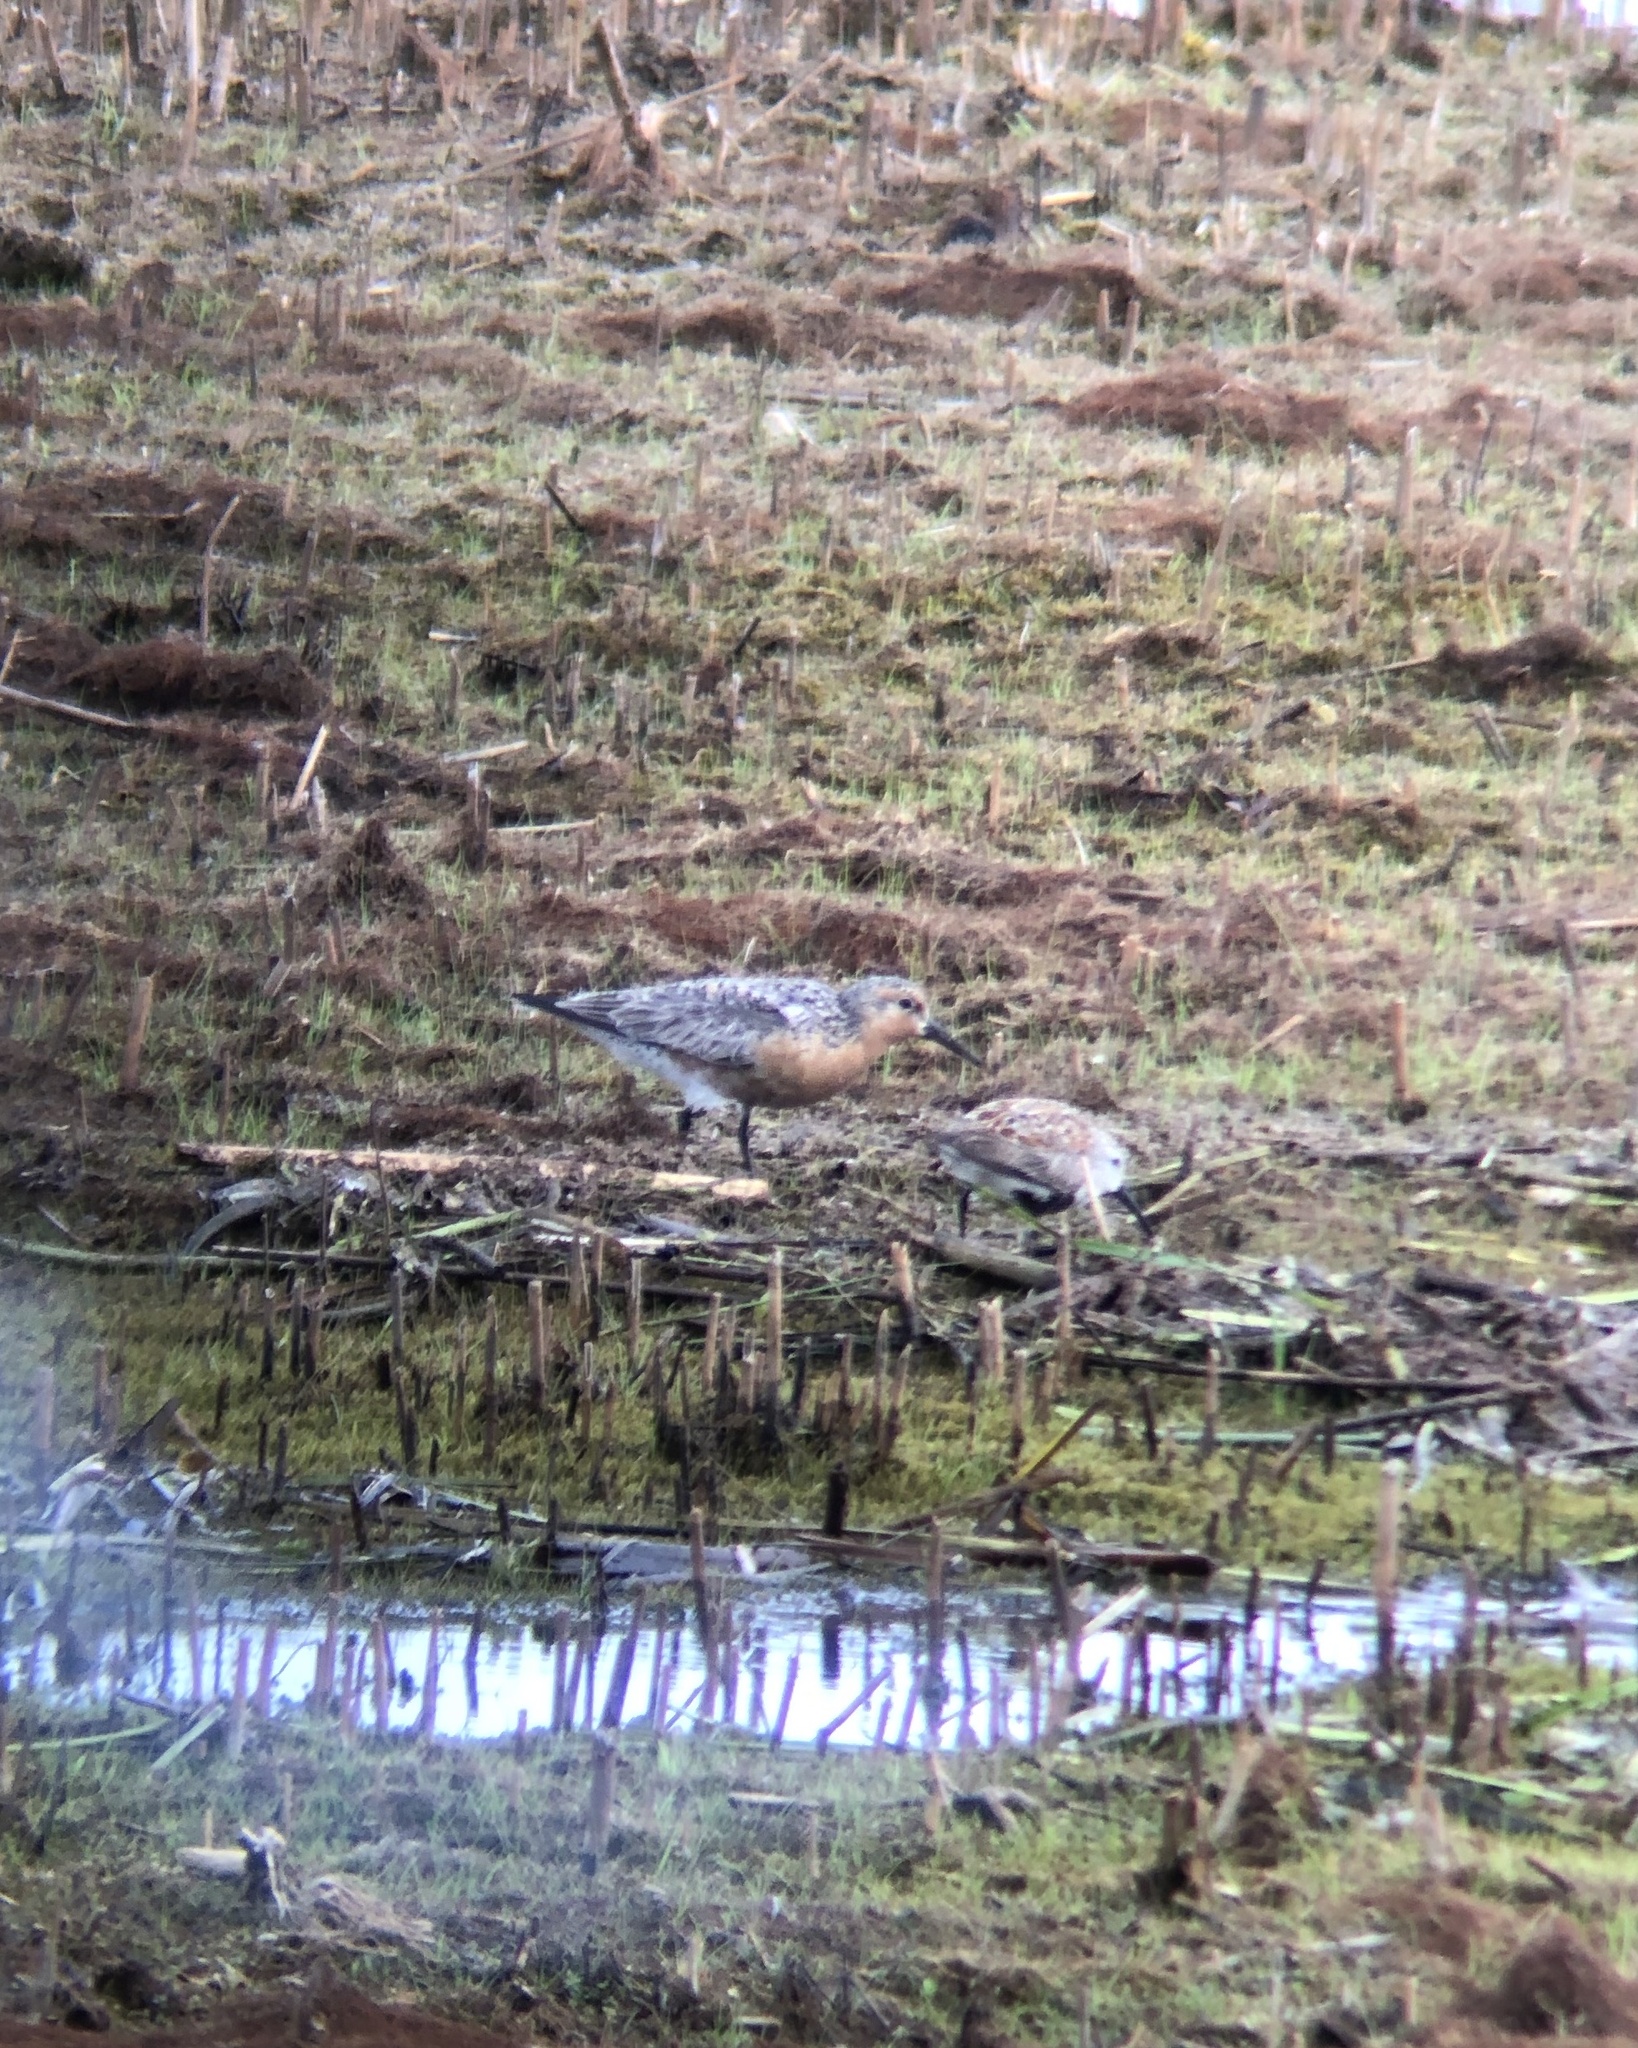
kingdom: Animalia
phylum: Chordata
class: Aves
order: Charadriiformes
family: Scolopacidae
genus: Calidris
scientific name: Calidris canutus
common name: Red knot
